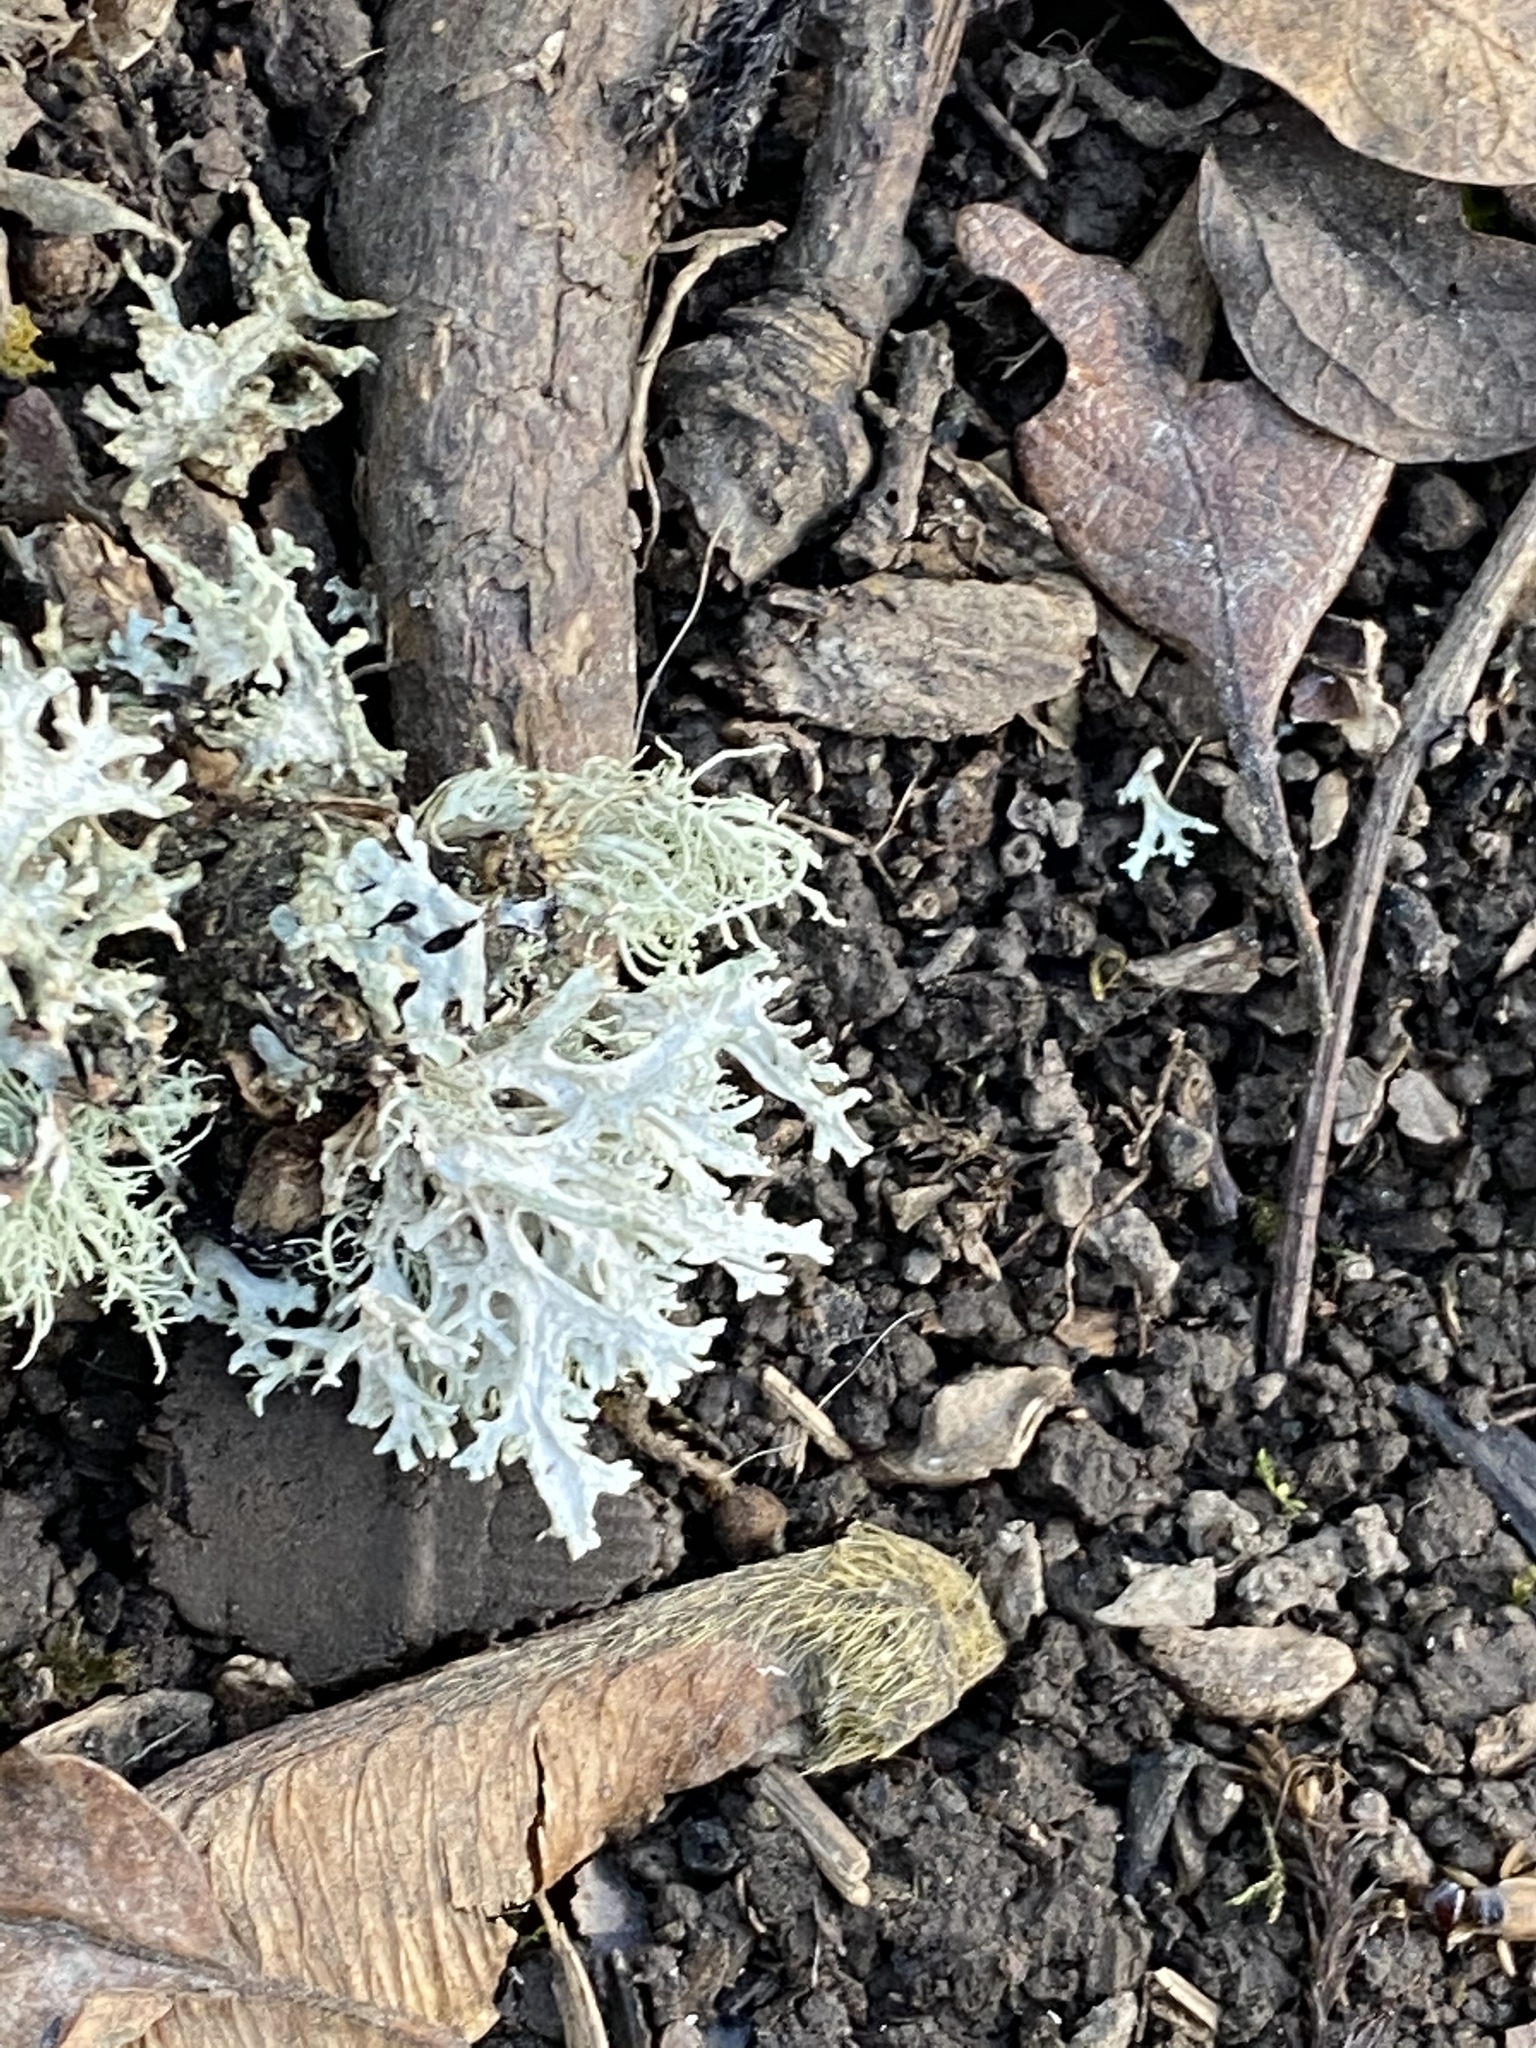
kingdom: Fungi
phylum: Ascomycota
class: Lecanoromycetes
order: Lecanorales
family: Parmeliaceae
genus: Evernia
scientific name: Evernia prunastri
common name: Oak moss
